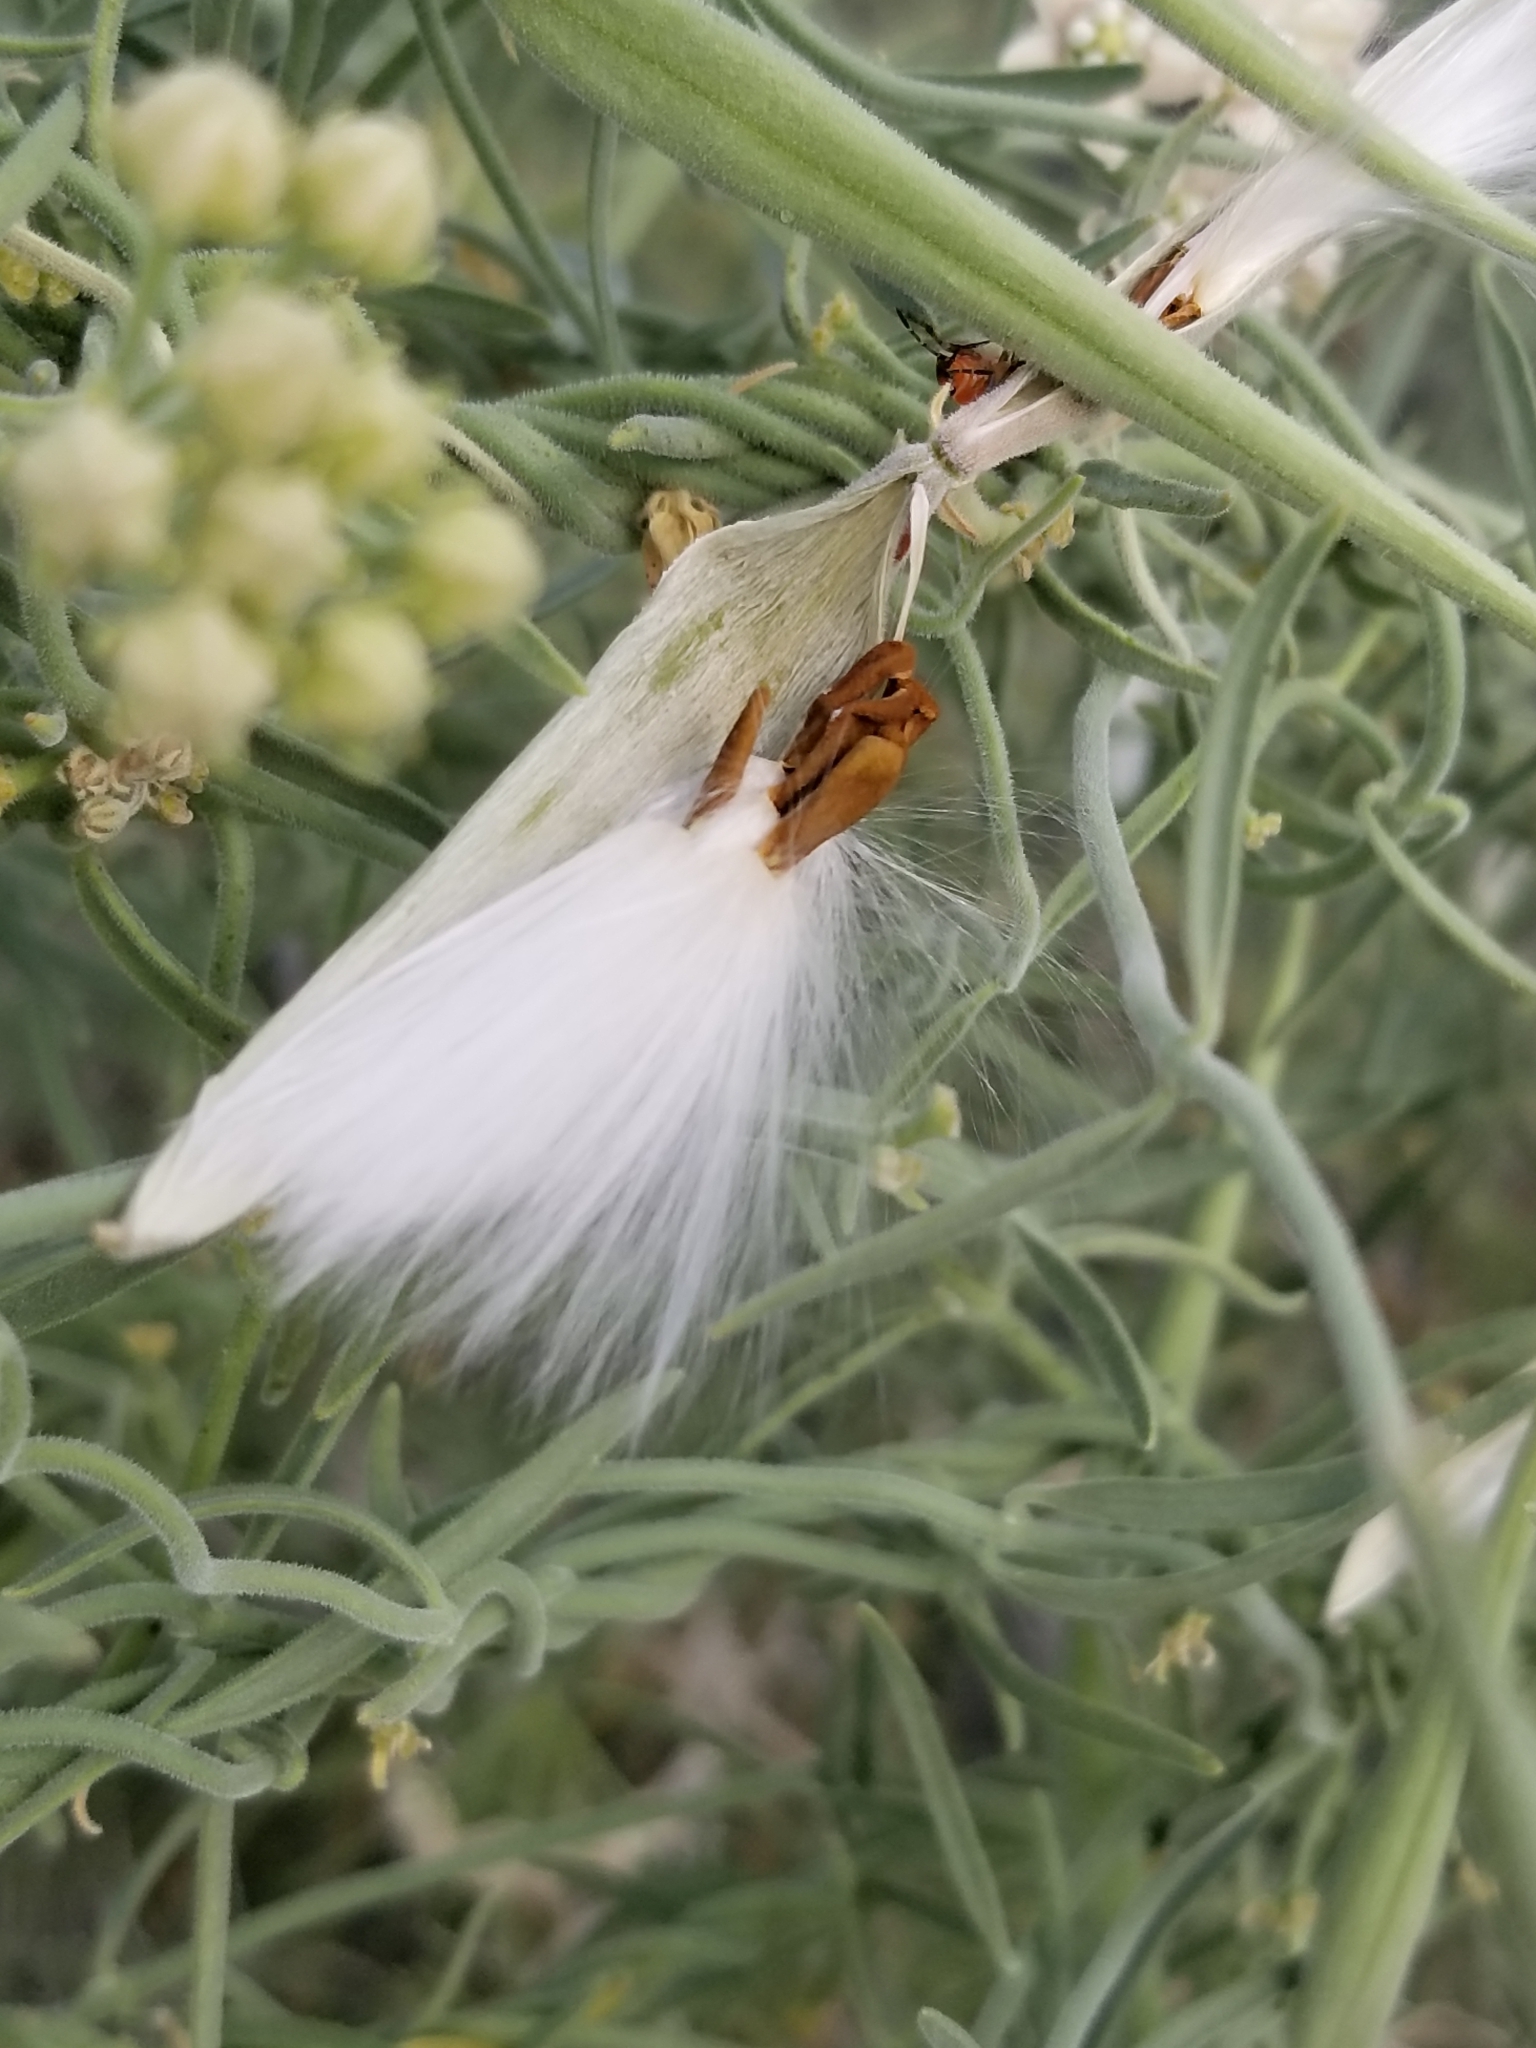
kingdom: Plantae
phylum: Tracheophyta
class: Magnoliopsida
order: Gentianales
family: Apocynaceae
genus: Funastrum
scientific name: Funastrum hirtellum
